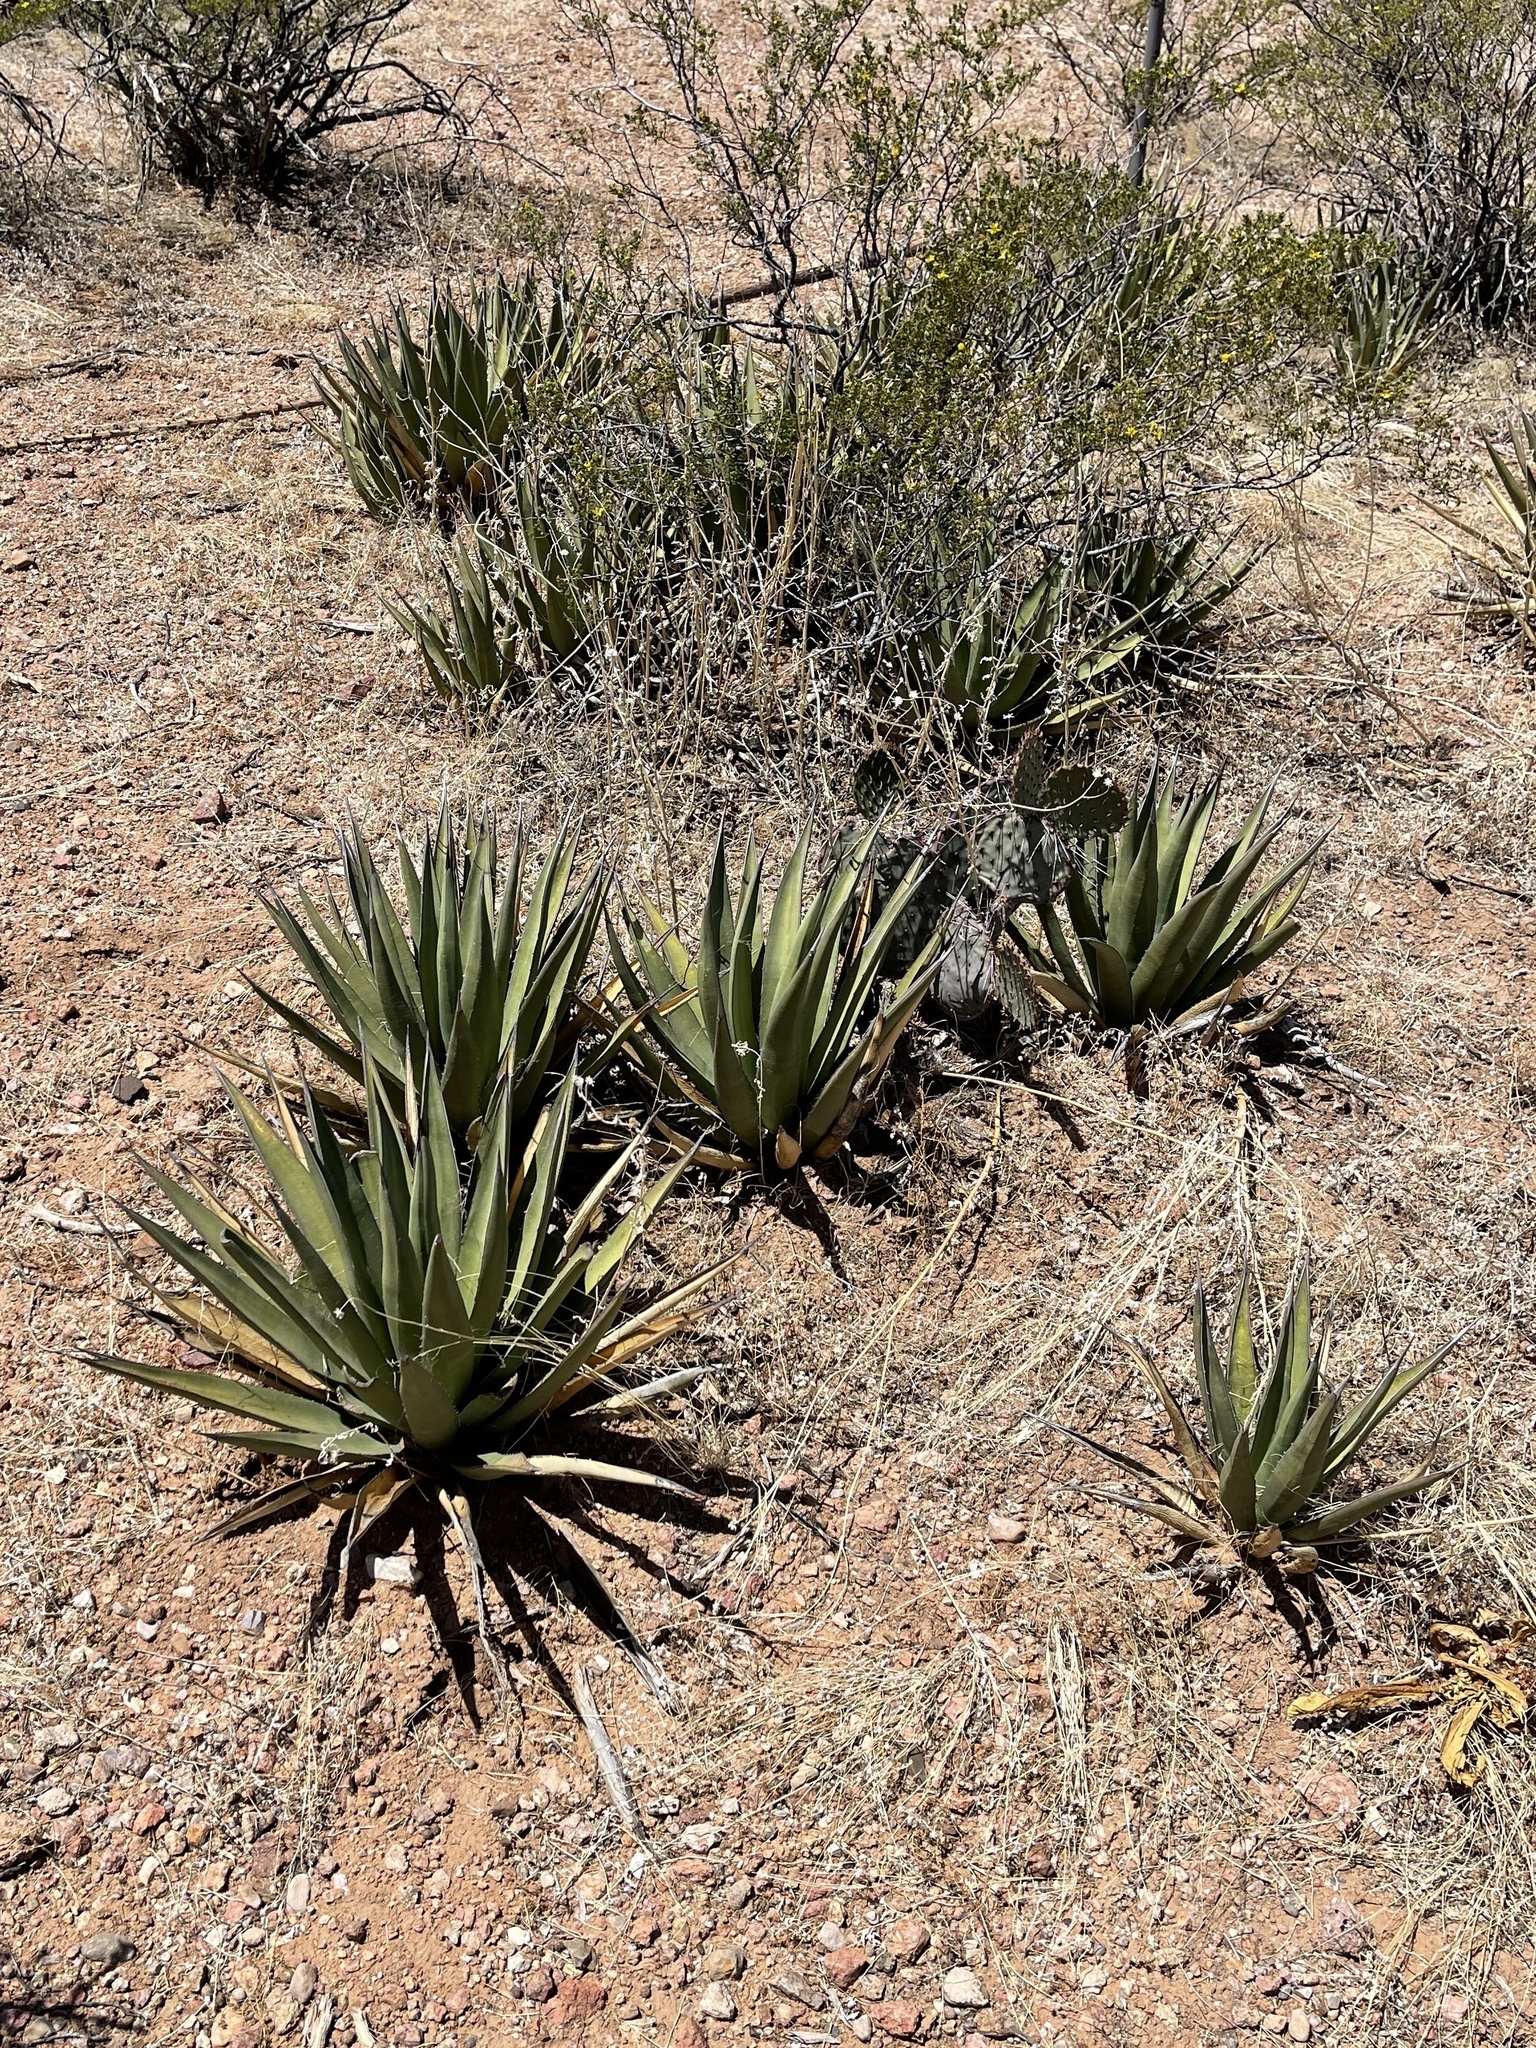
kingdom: Plantae
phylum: Tracheophyta
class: Liliopsida
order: Asparagales
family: Asparagaceae
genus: Agave
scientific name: Agave lechuguilla
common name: Lecheguilla agave
